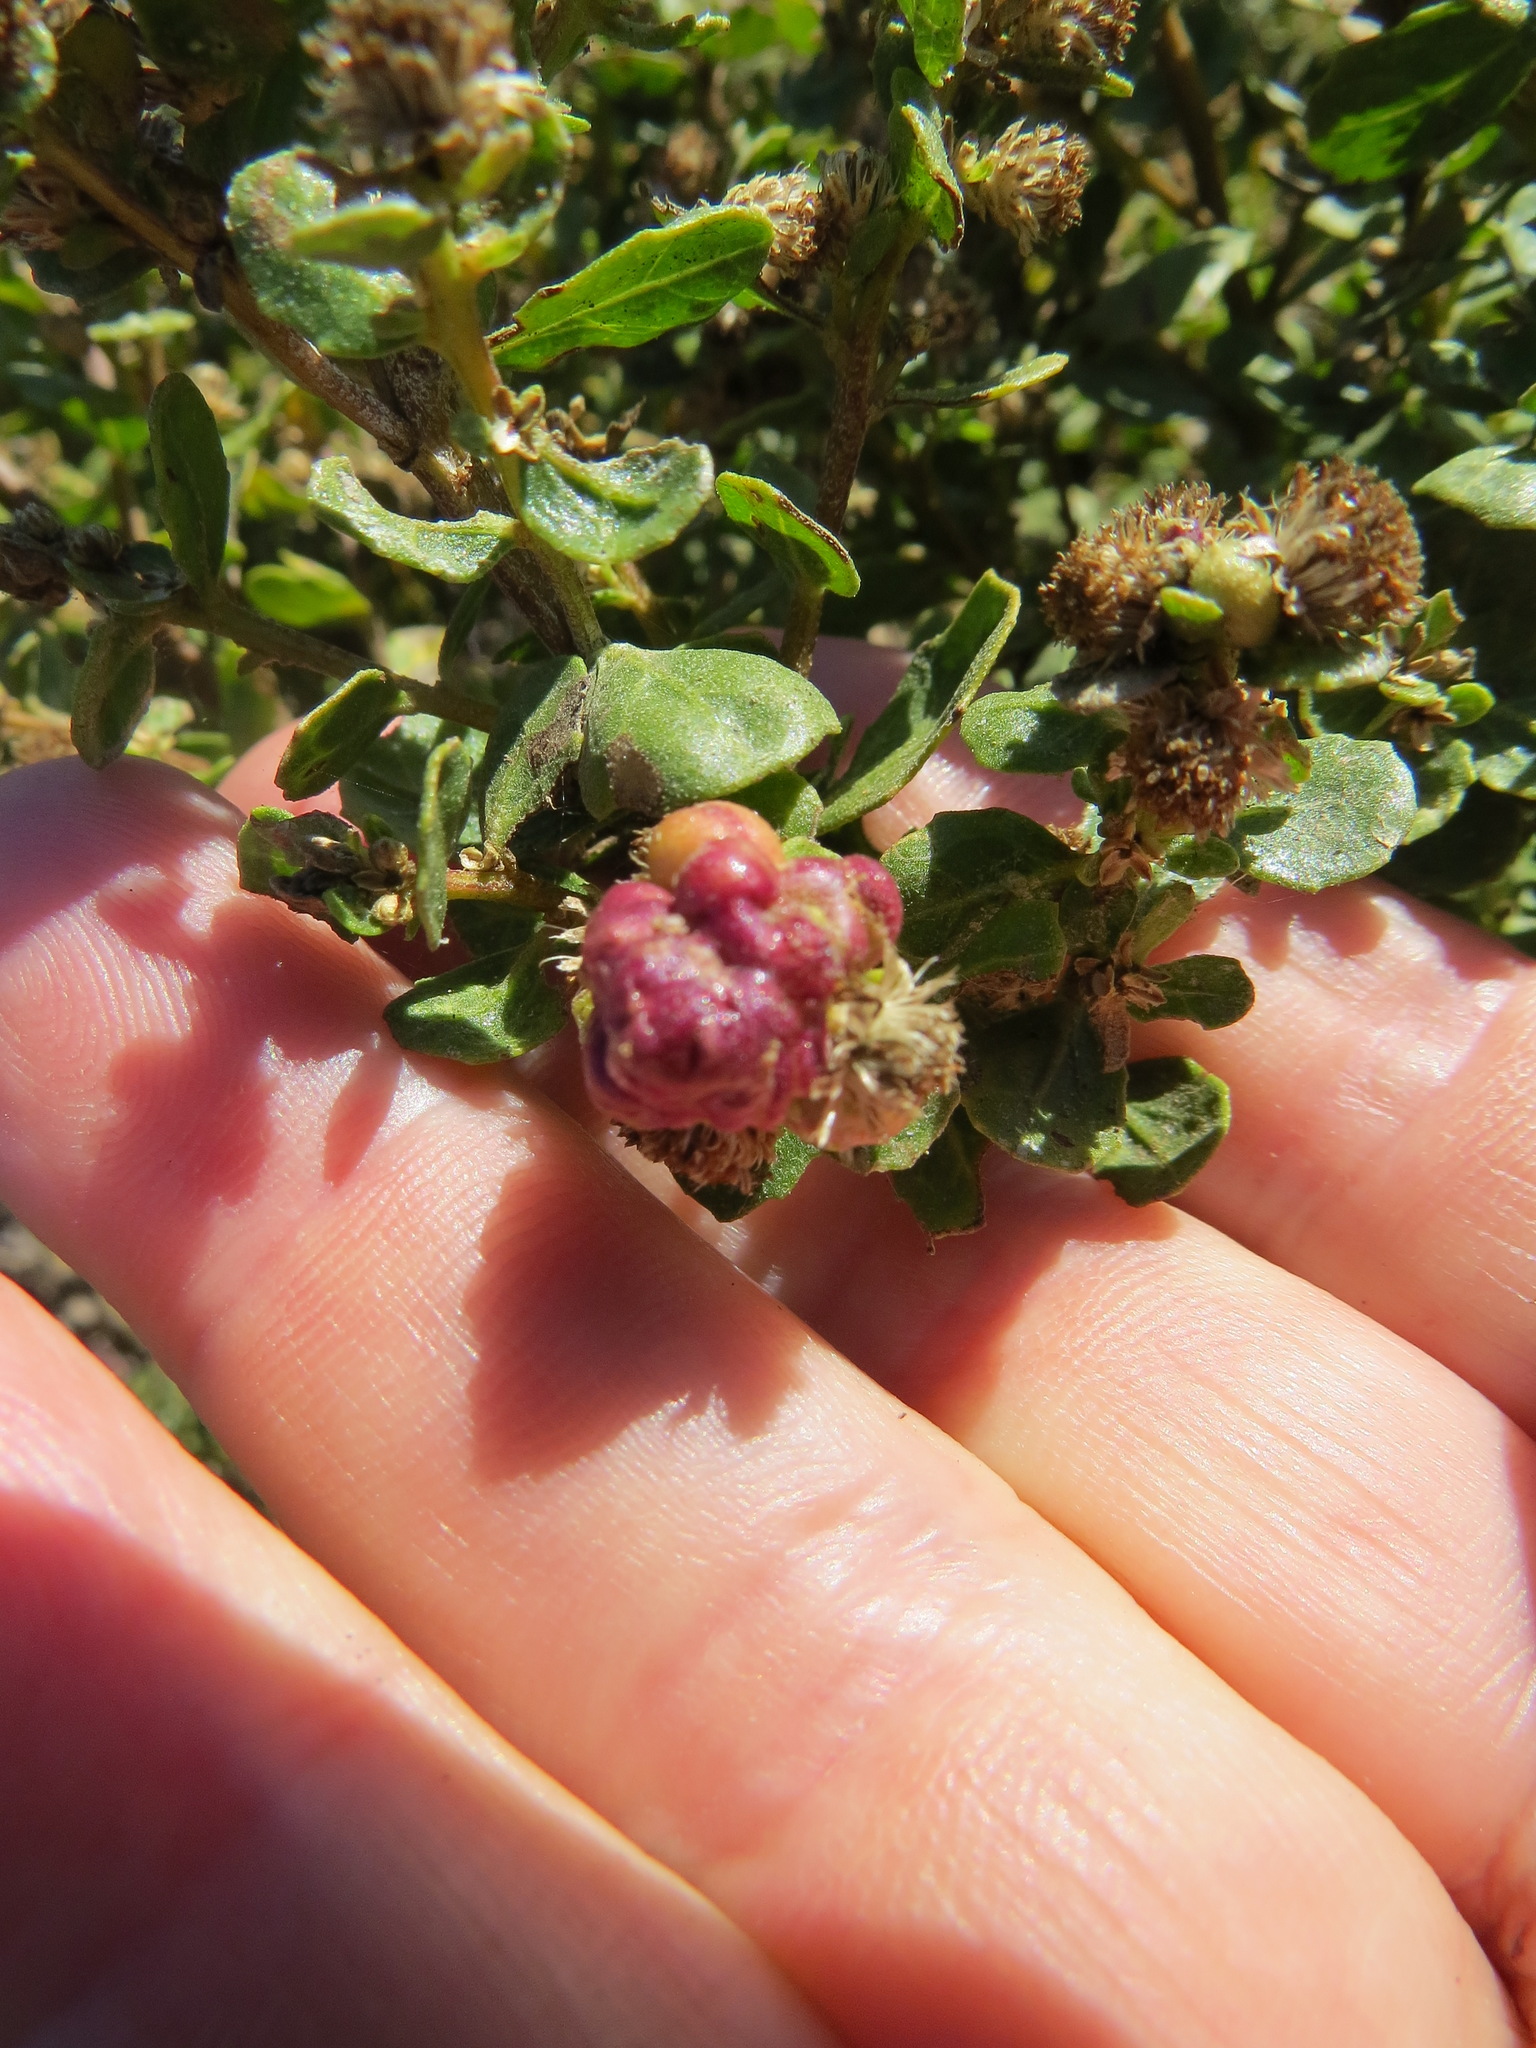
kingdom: Animalia
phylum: Arthropoda
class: Insecta
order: Diptera
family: Cecidomyiidae
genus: Rhopalomyia
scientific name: Rhopalomyia californica
